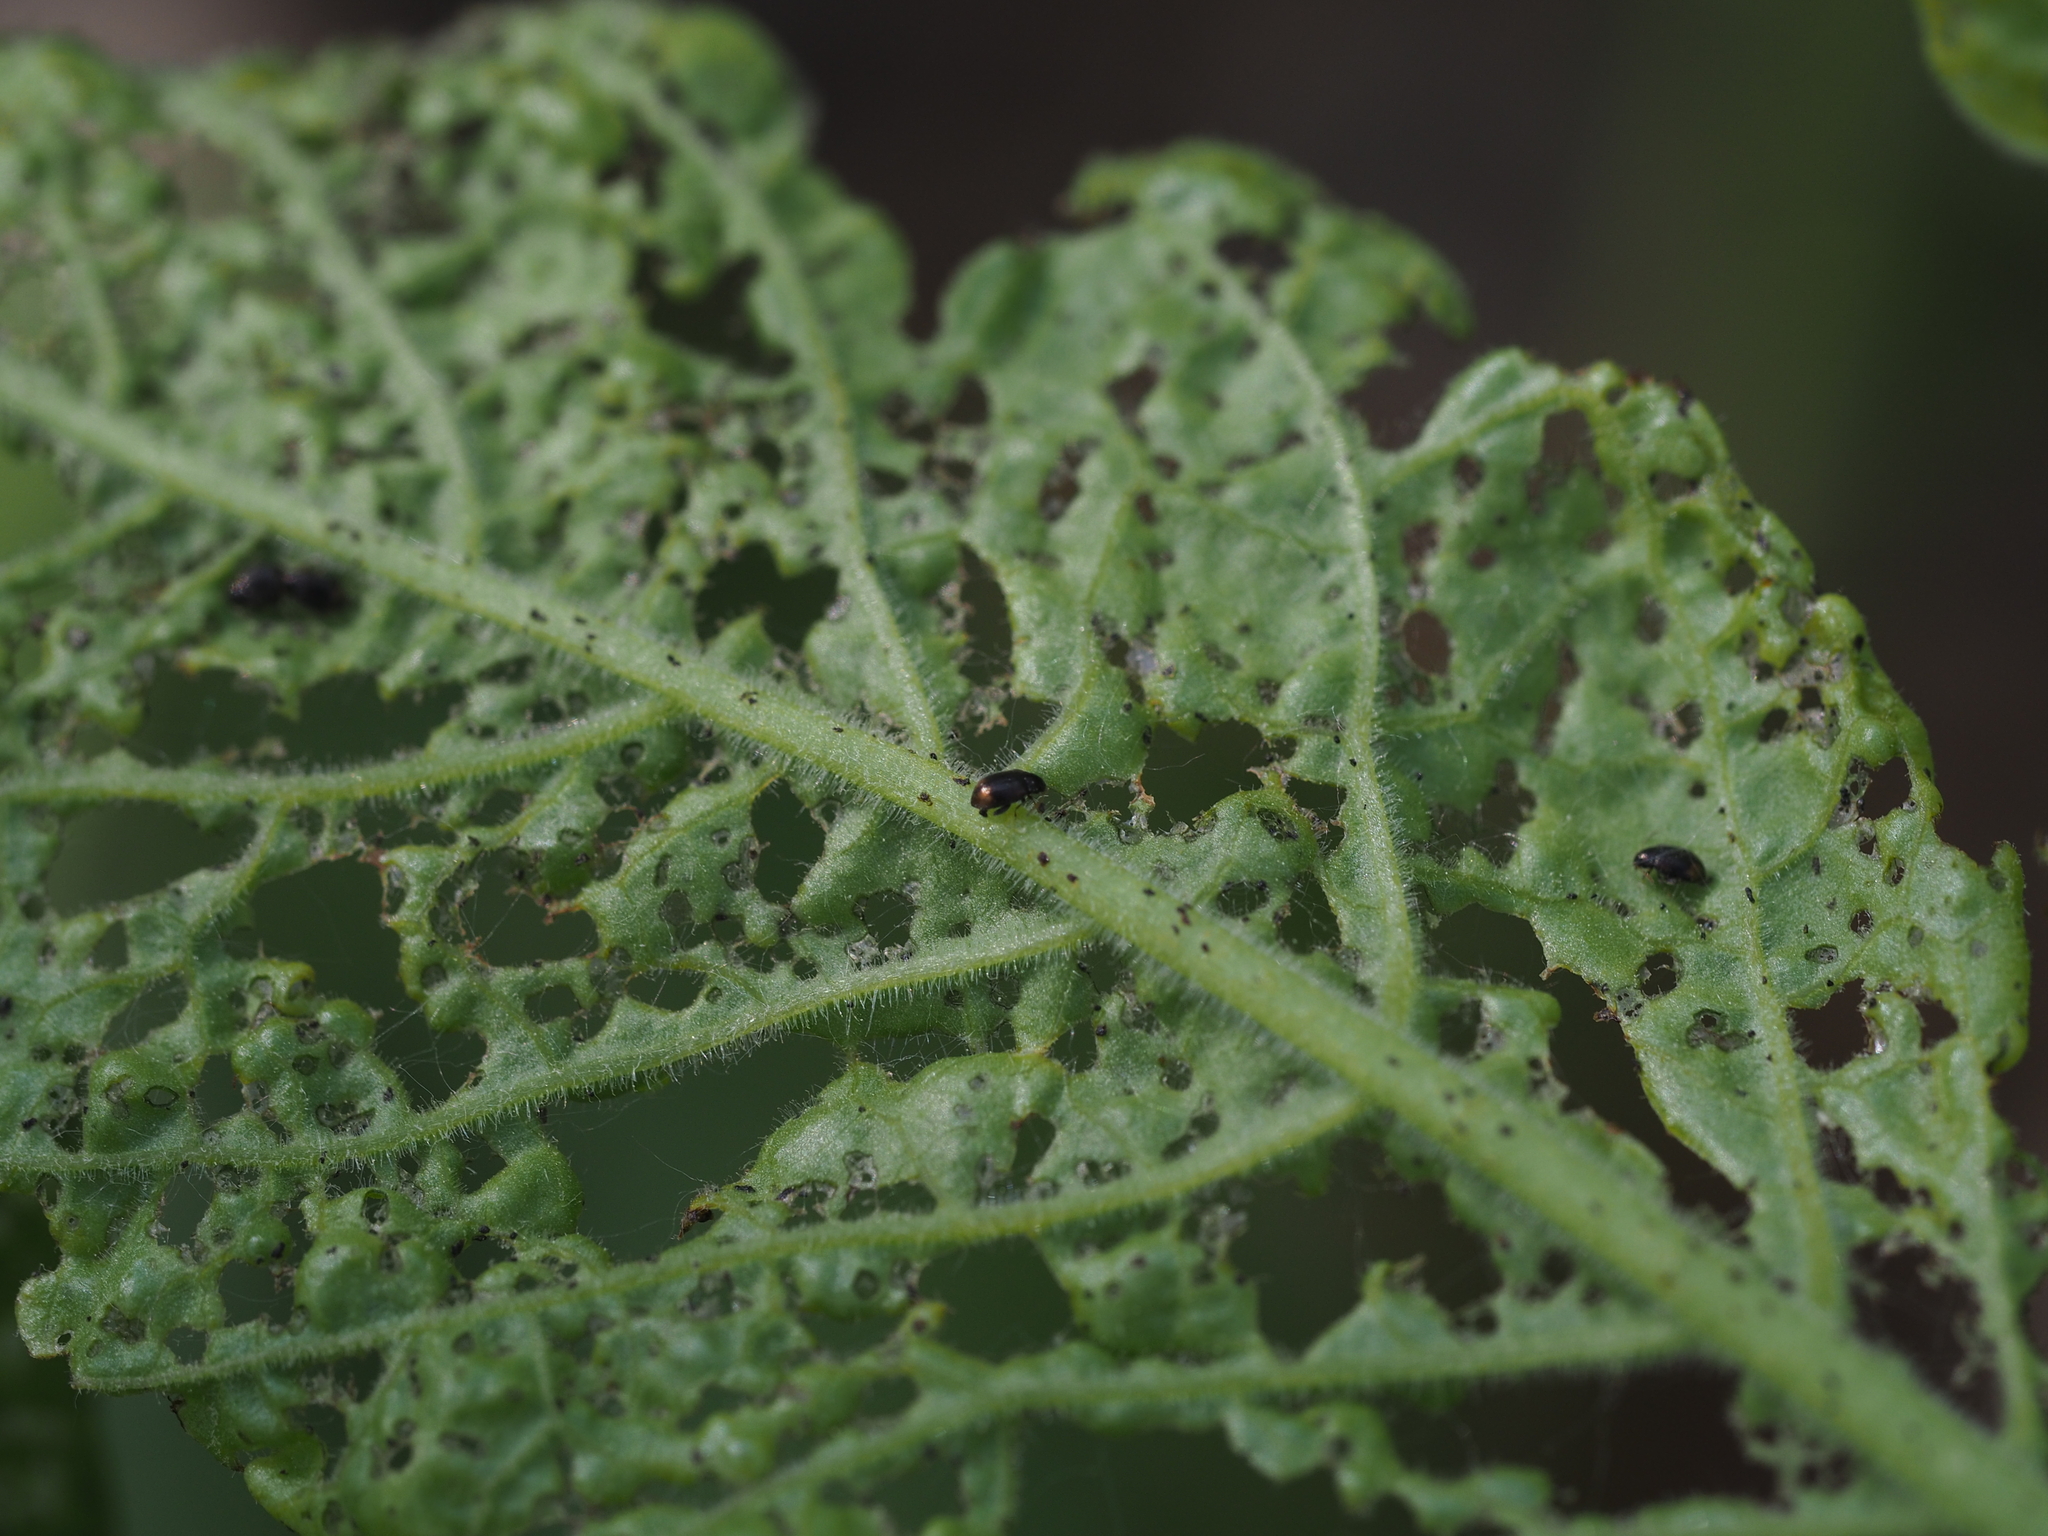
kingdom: Animalia
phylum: Arthropoda
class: Insecta
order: Coleoptera
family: Chrysomelidae
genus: Epitrix
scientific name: Epitrix atropae
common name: Belladonna flea beetle
